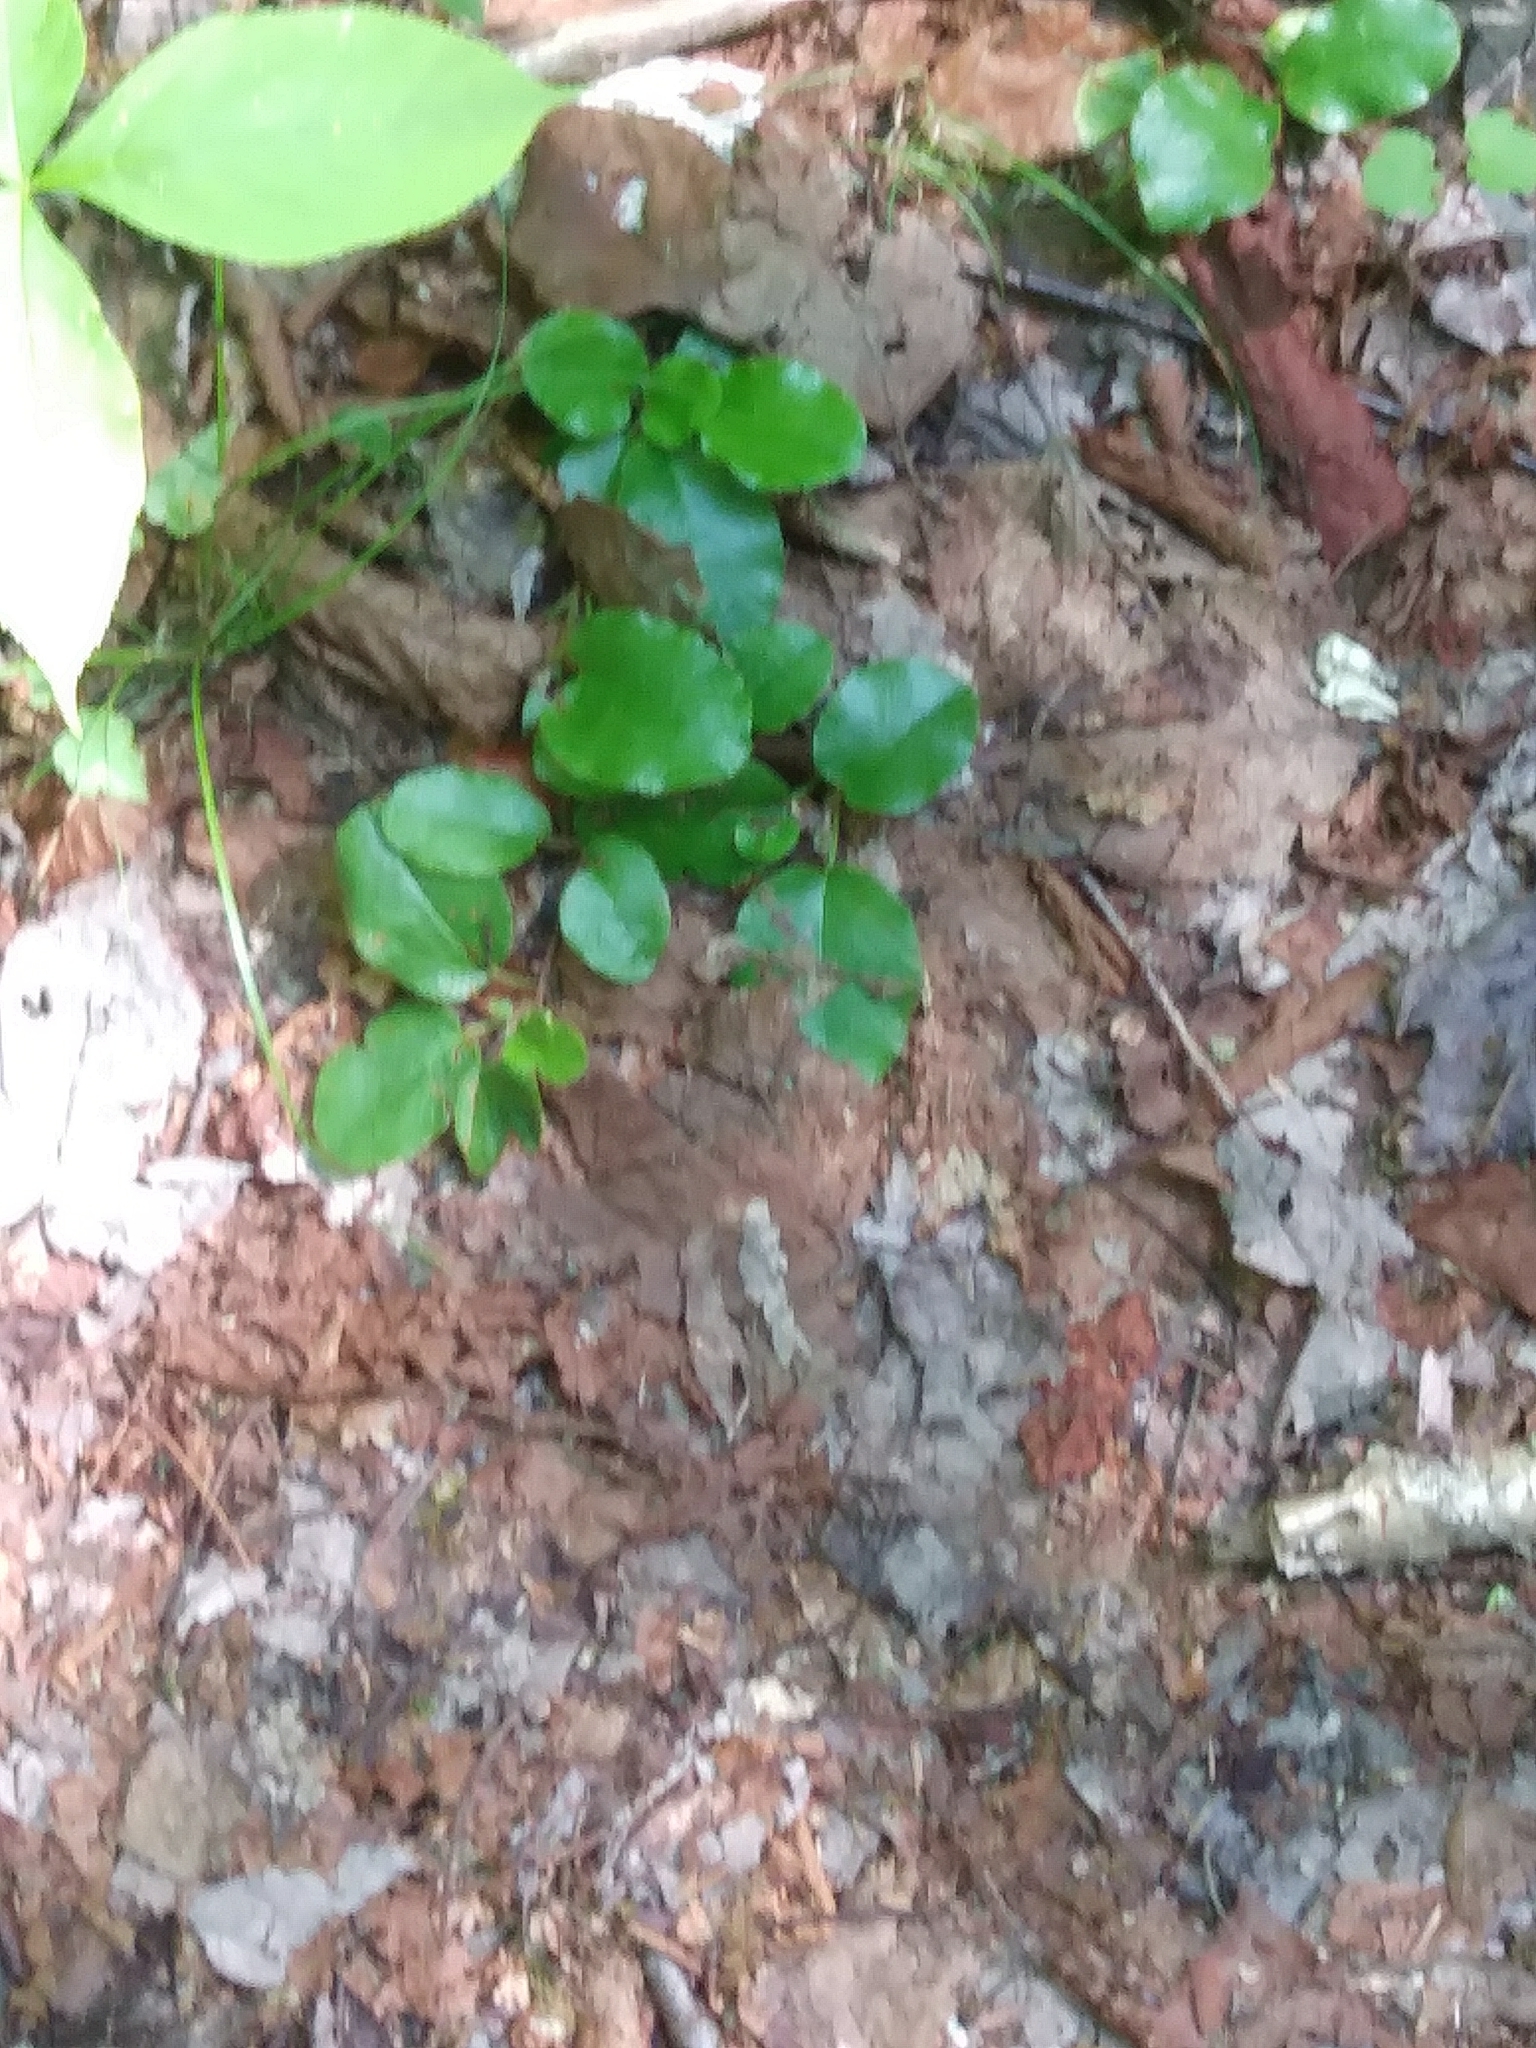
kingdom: Plantae
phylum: Tracheophyta
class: Magnoliopsida
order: Ericales
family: Ericaceae
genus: Epigaea
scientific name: Epigaea repens
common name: Gravelroot
